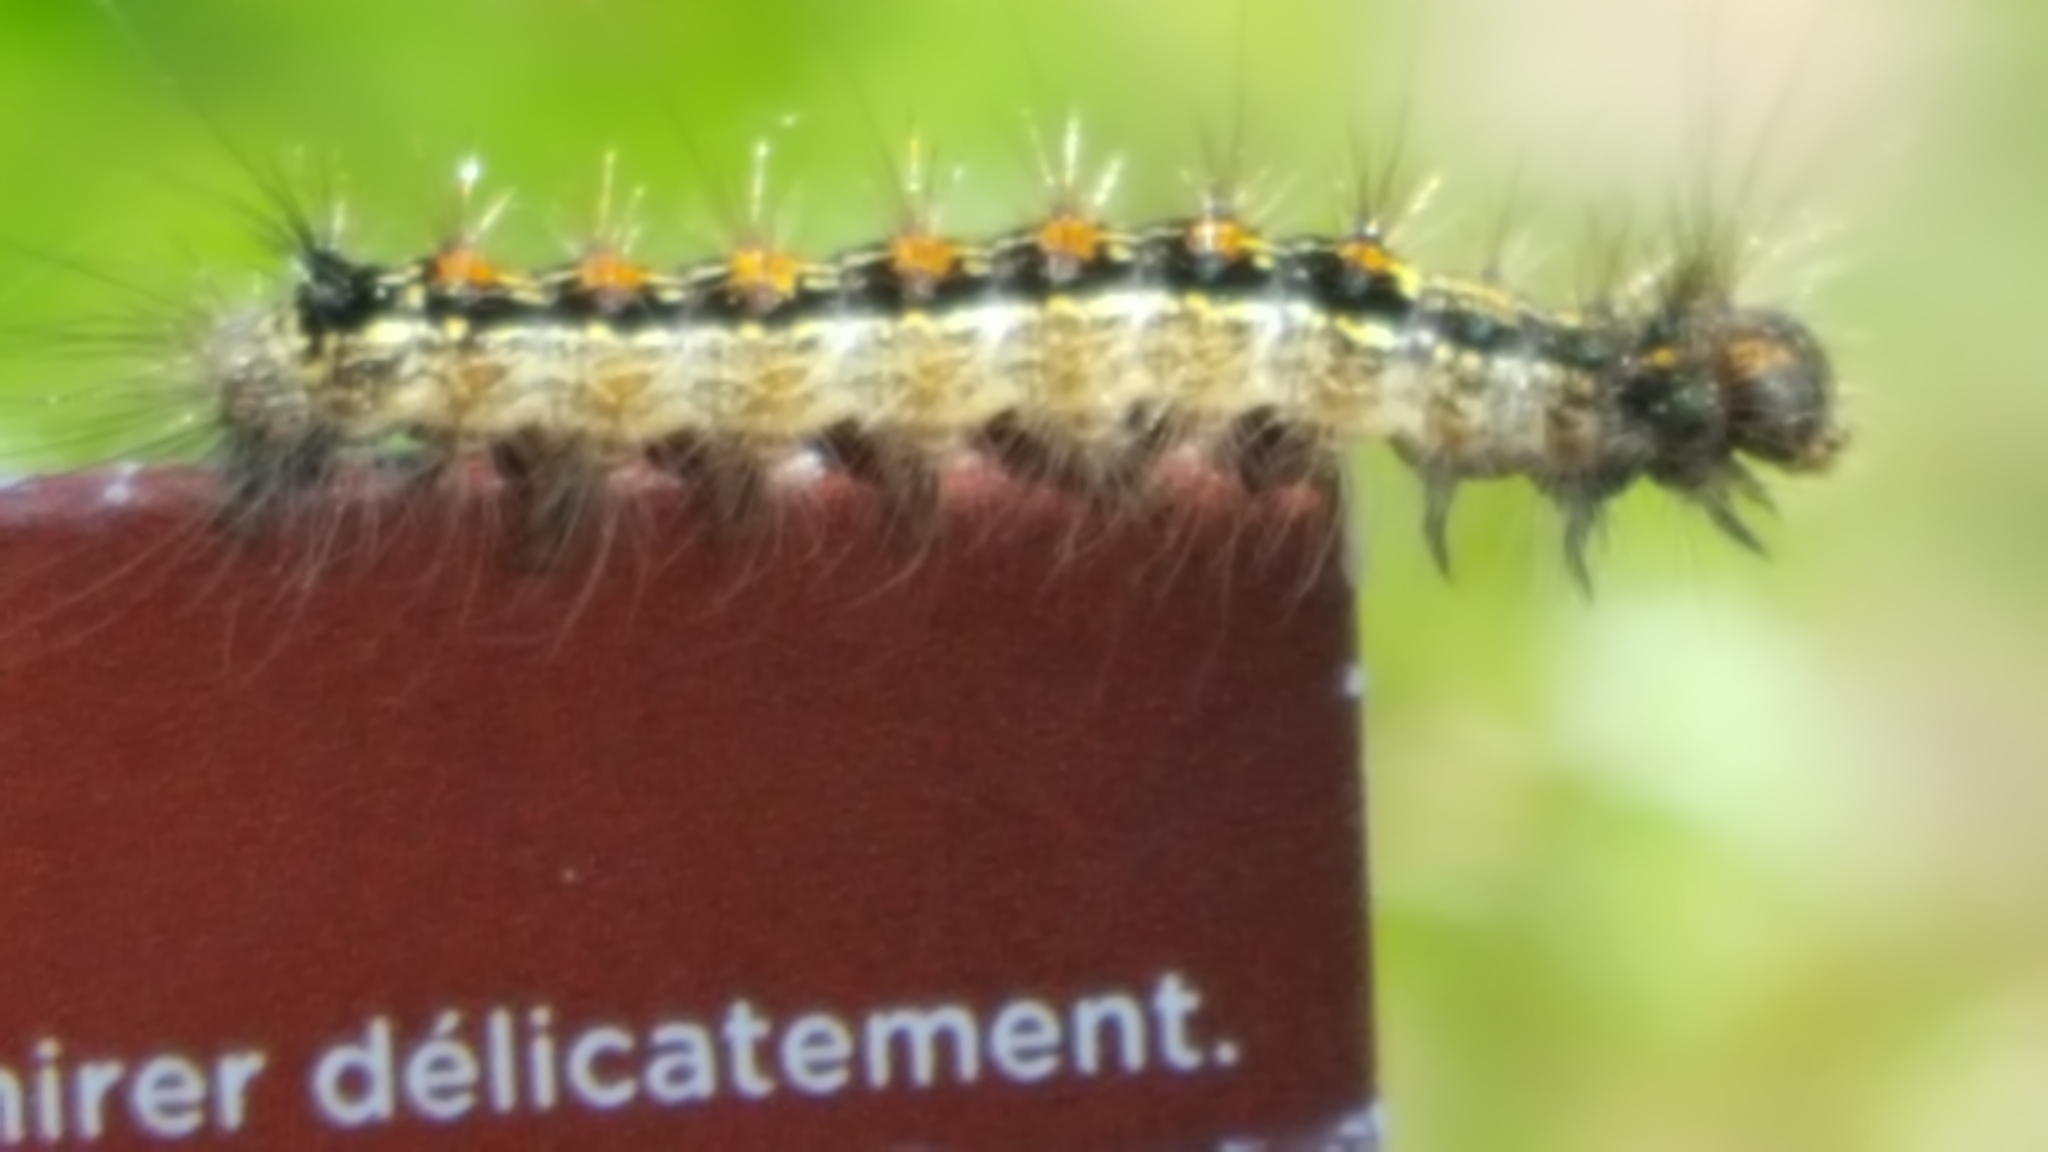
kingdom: Animalia
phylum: Arthropoda
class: Insecta
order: Lepidoptera
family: Erebidae
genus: Lymantria
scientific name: Lymantria dispar
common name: Gypsy moth
